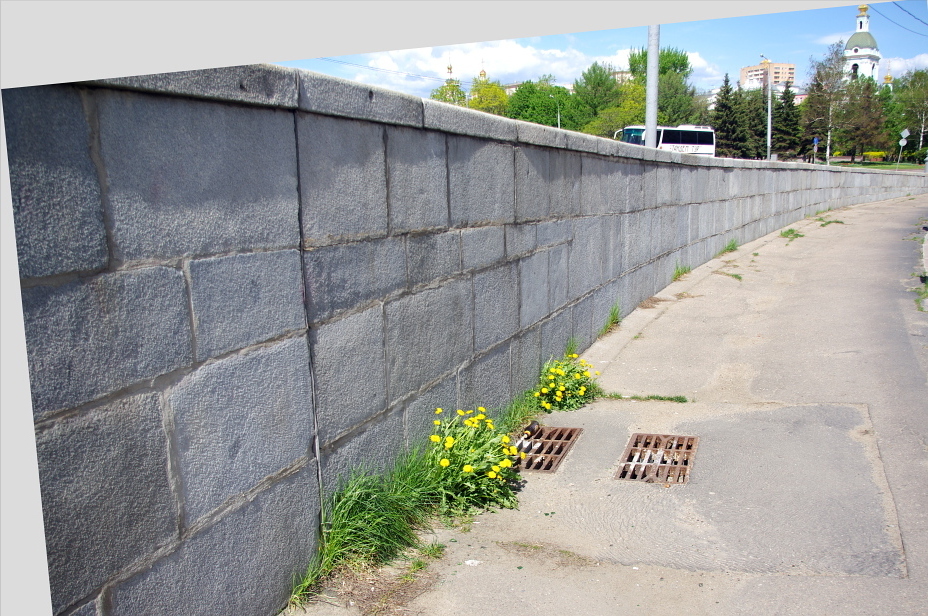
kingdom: Plantae
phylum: Tracheophyta
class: Magnoliopsida
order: Asterales
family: Asteraceae
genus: Taraxacum
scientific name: Taraxacum officinale
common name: Common dandelion
